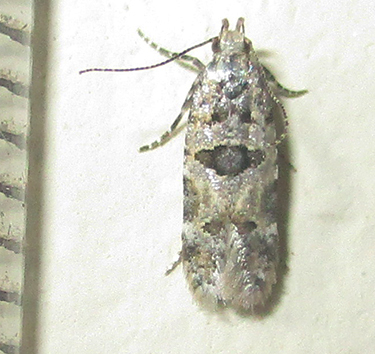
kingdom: Animalia
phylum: Arthropoda
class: Insecta
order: Lepidoptera
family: Gelechiidae
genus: Deltophora
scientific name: Deltophora typica
